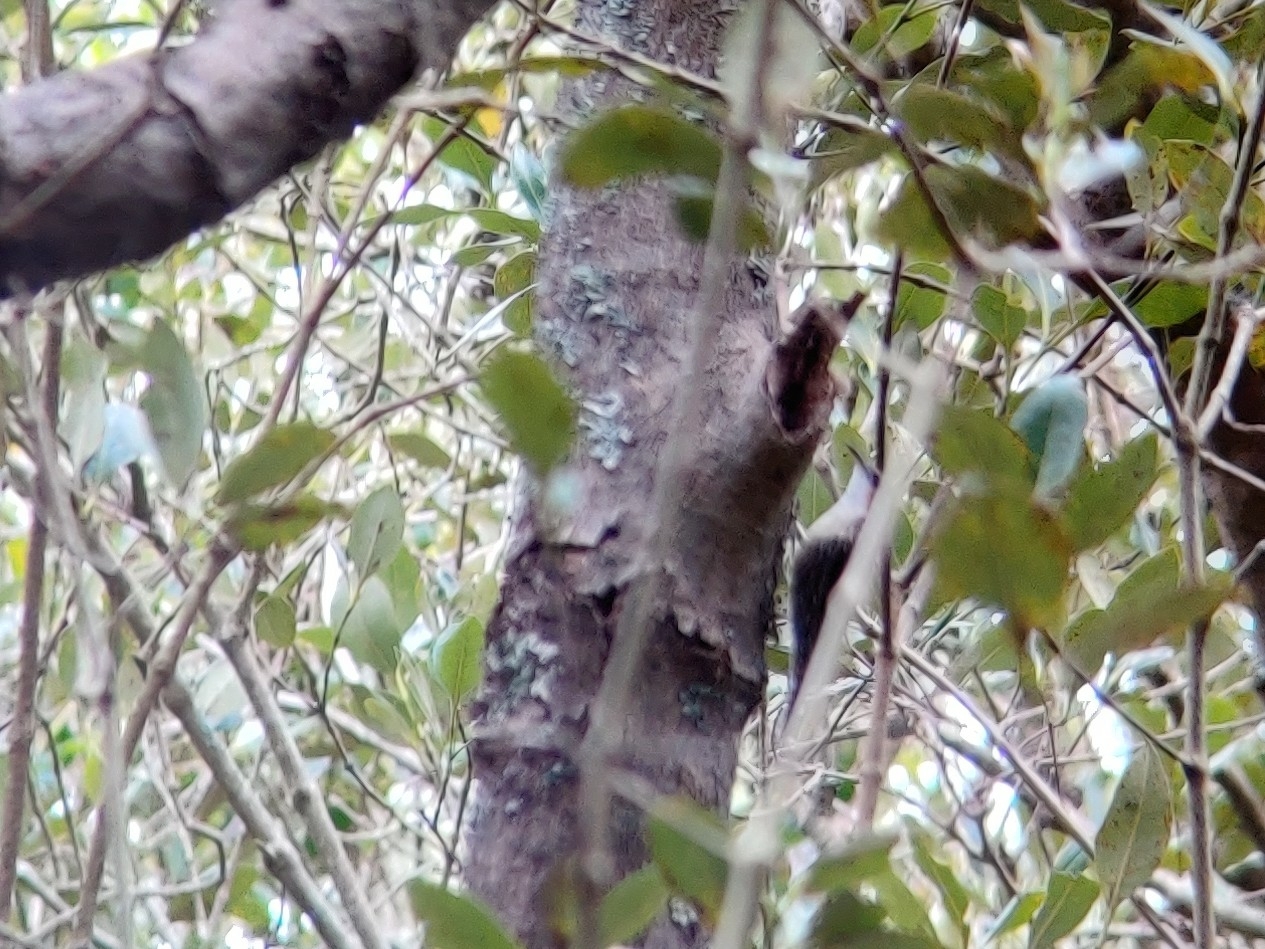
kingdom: Animalia
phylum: Chordata
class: Aves
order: Passeriformes
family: Climacteridae
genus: Cormobates
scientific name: Cormobates leucophaea
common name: White-throated treecreeper
